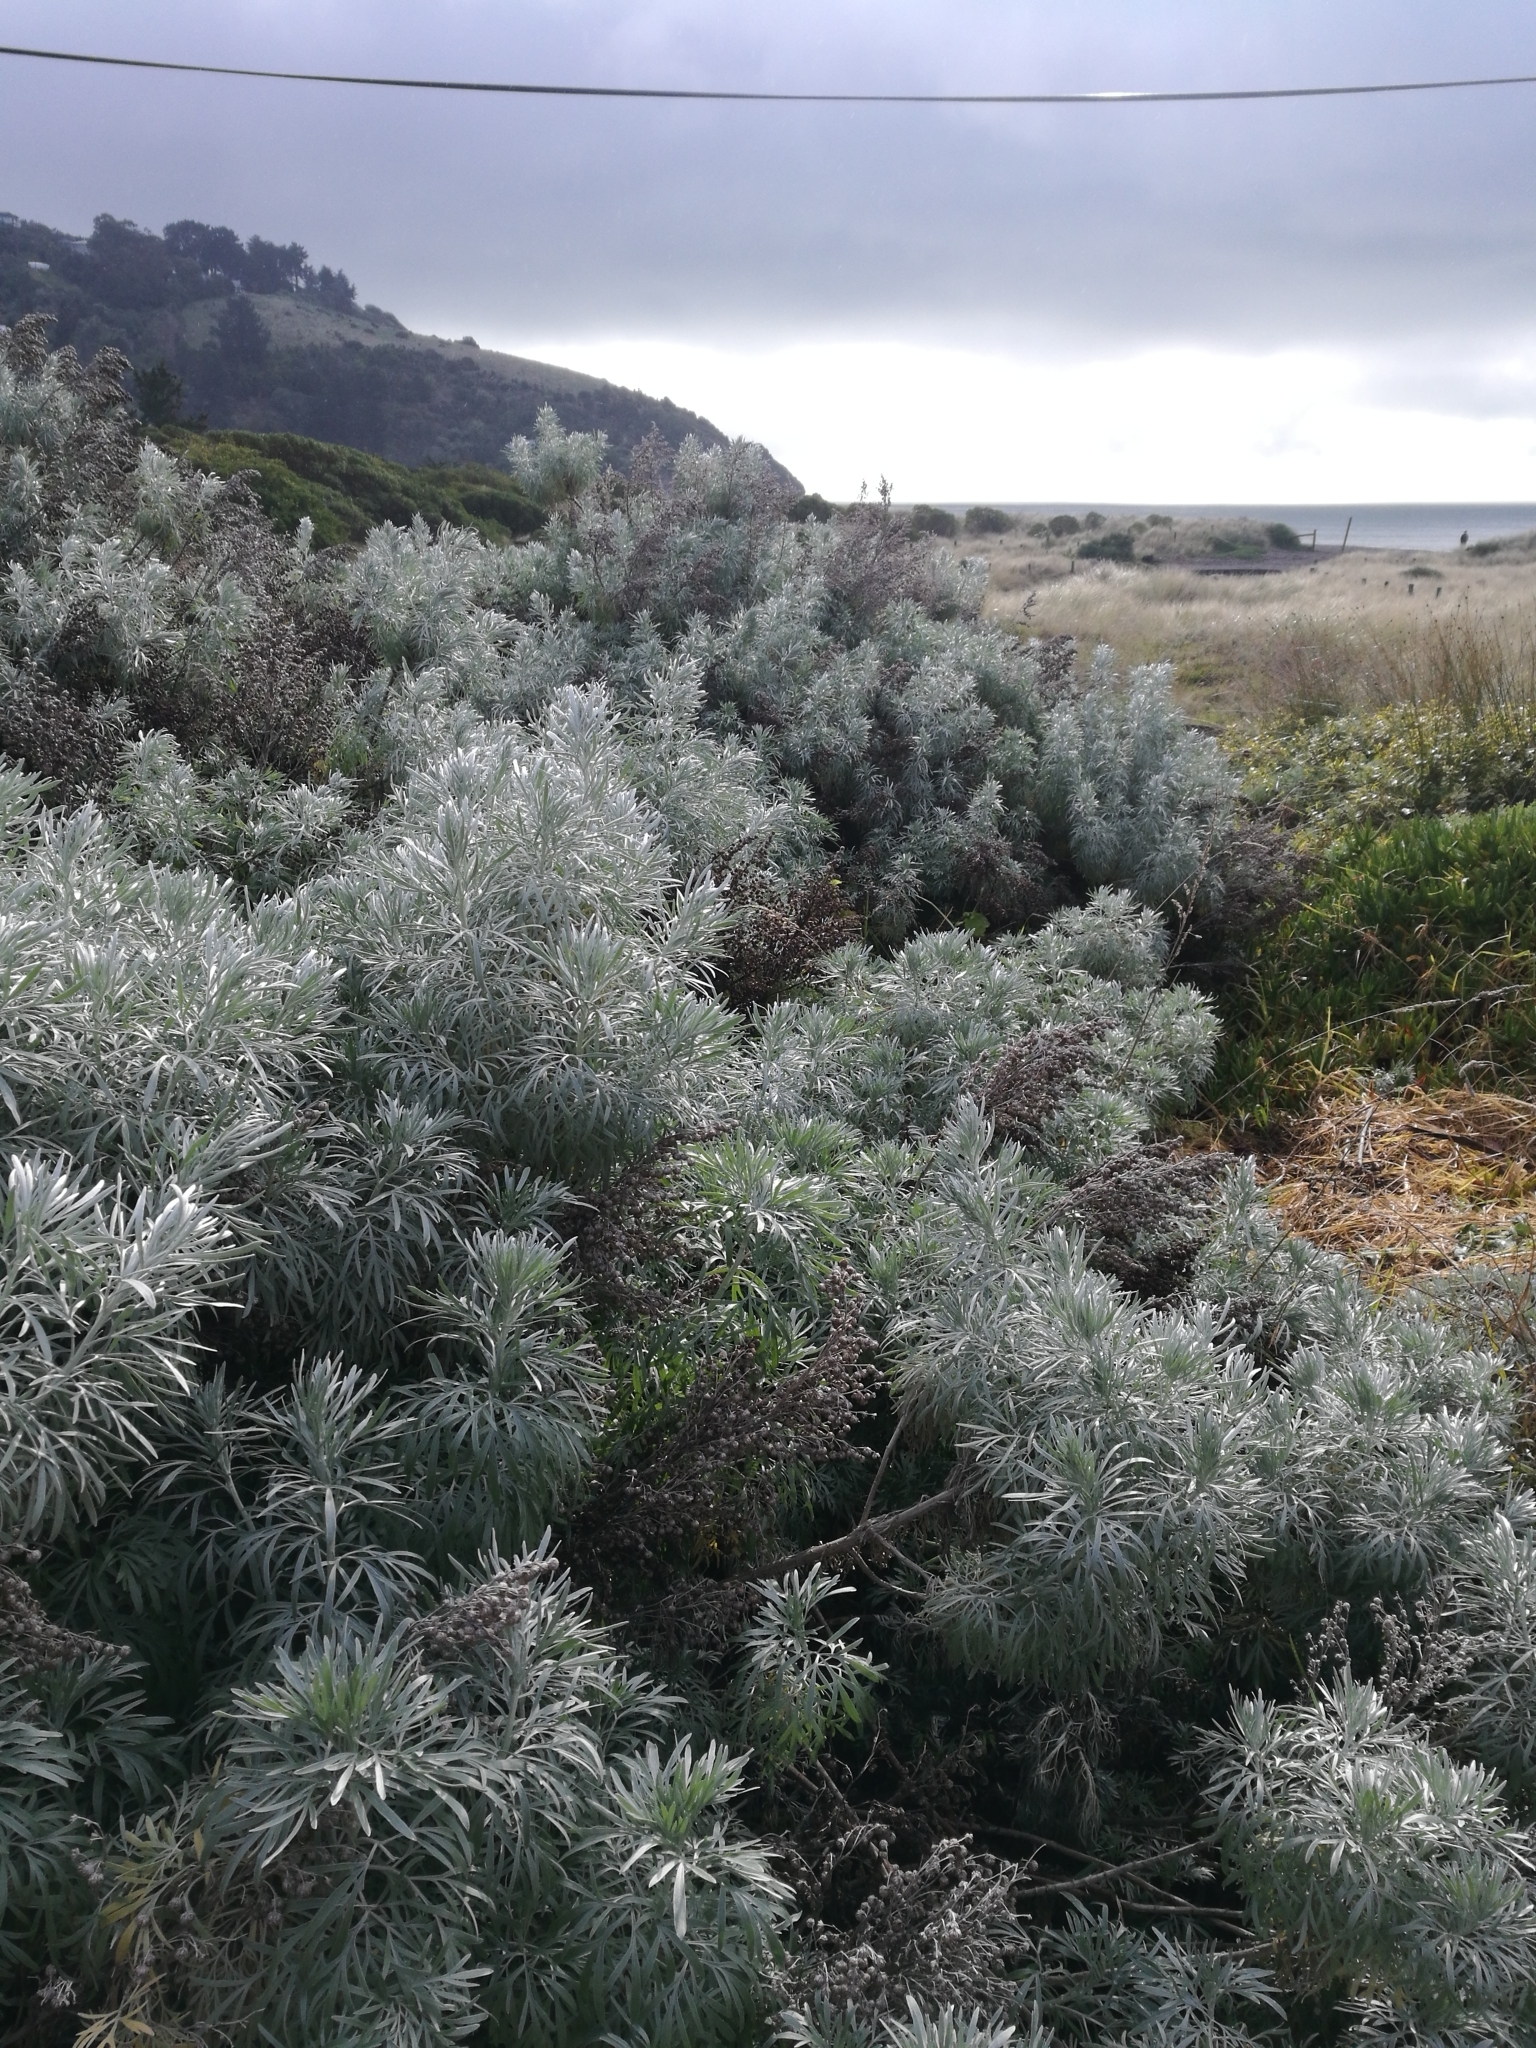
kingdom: Plantae
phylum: Tracheophyta
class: Magnoliopsida
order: Asterales
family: Asteraceae
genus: Artemisia
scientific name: Artemisia arborescens
